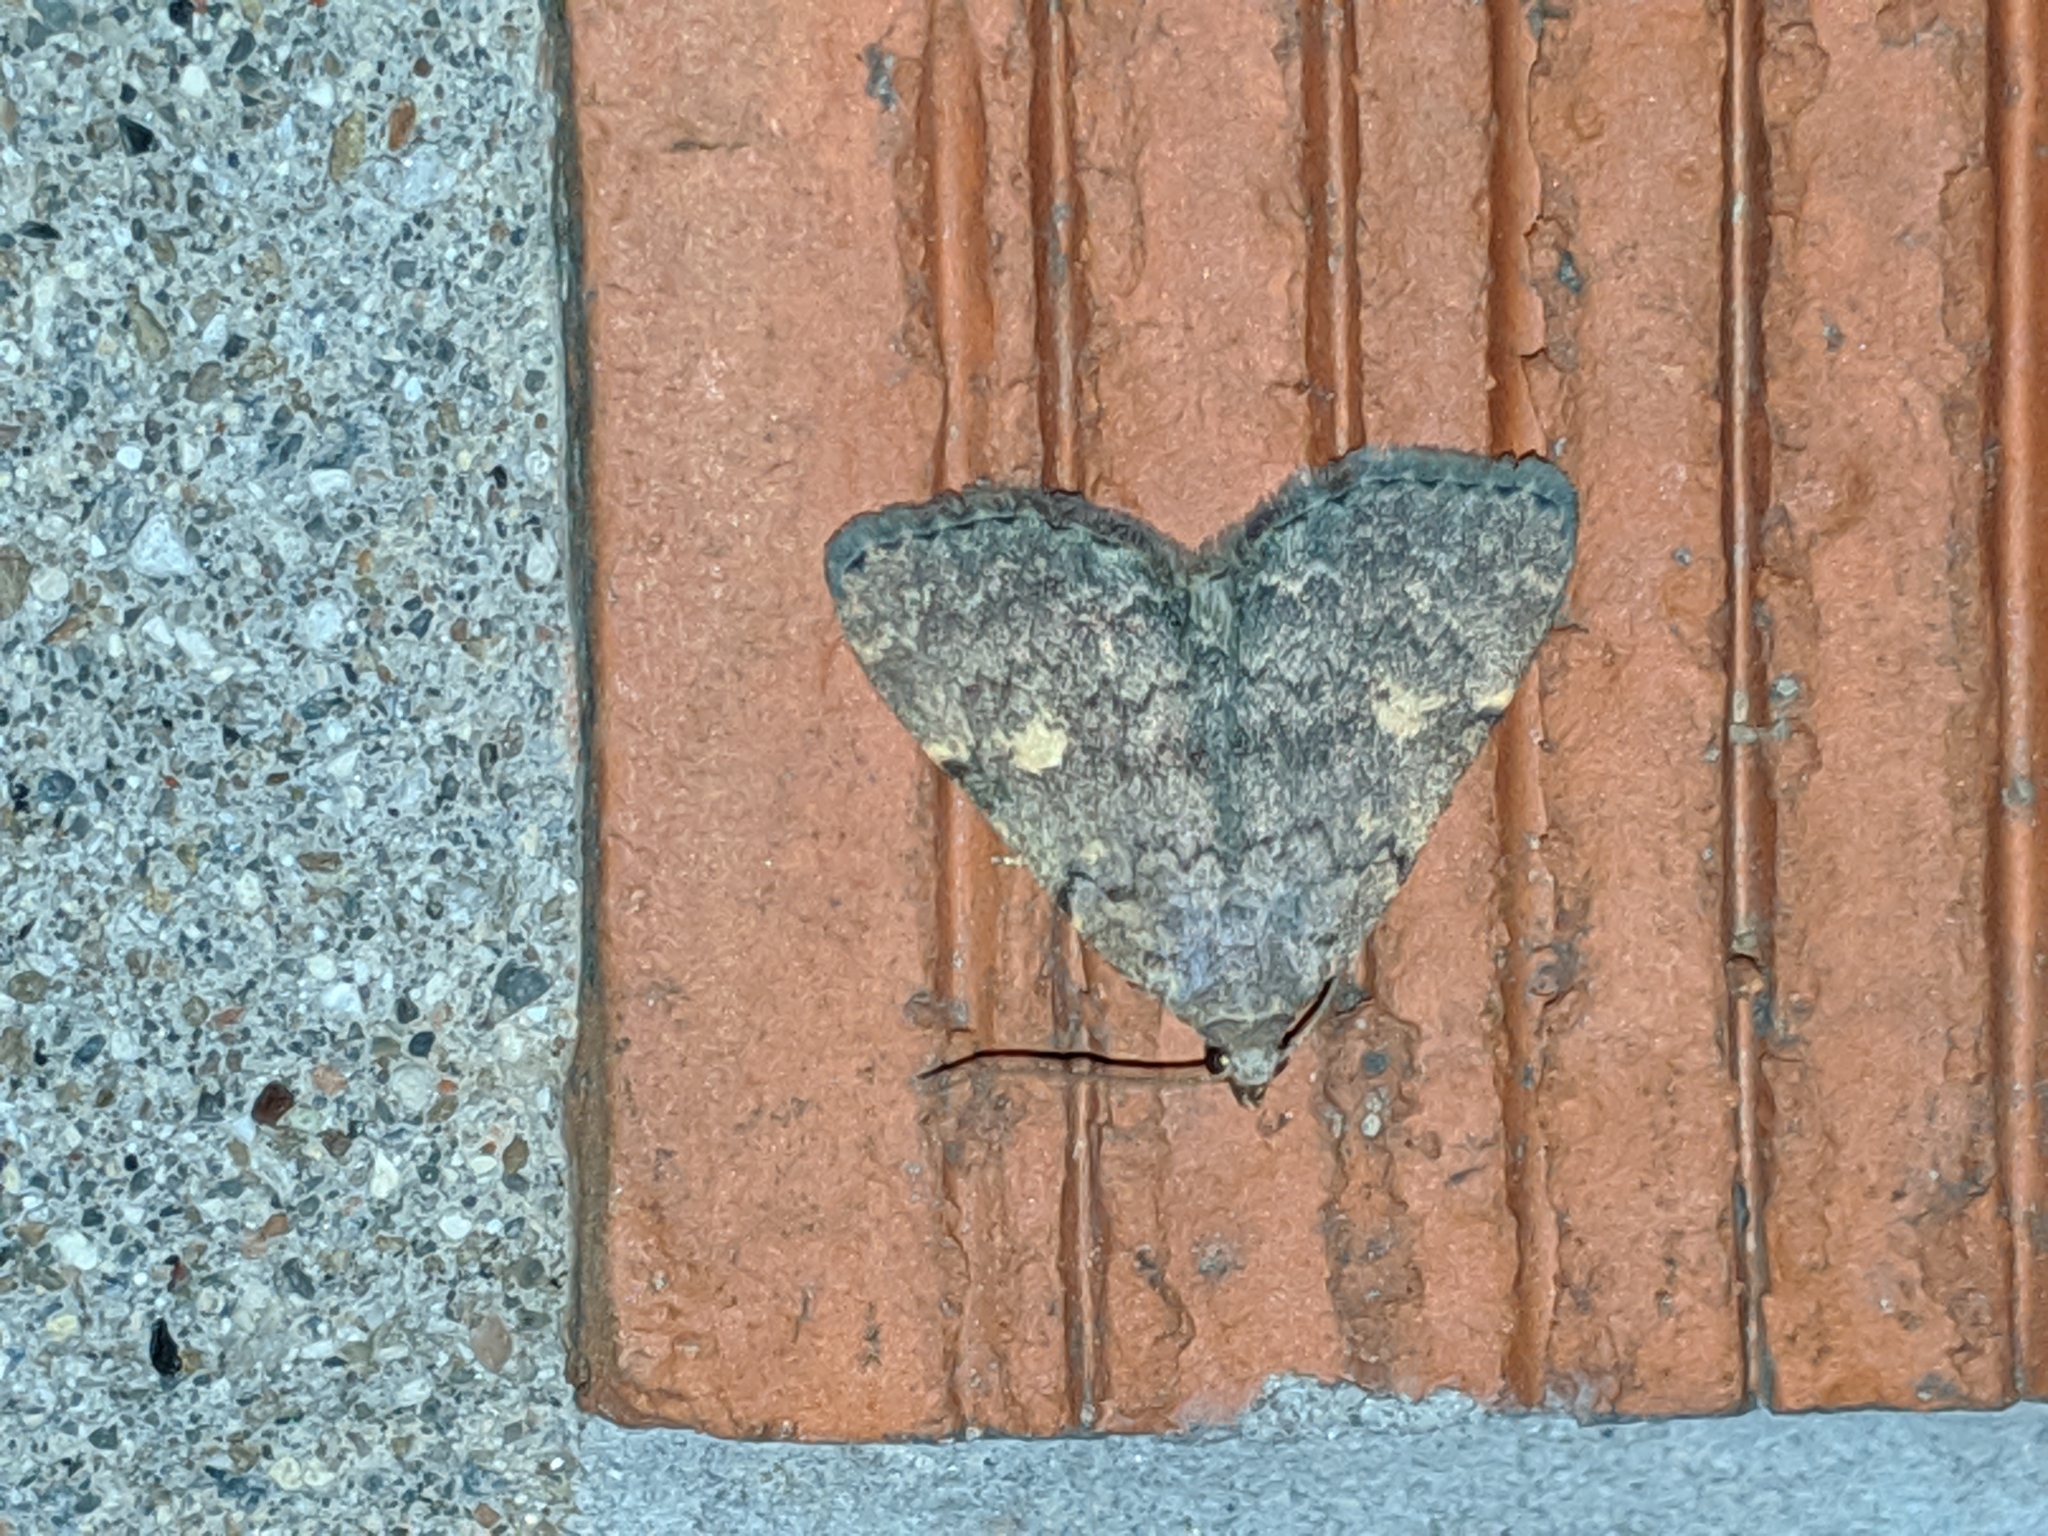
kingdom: Animalia
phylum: Arthropoda
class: Insecta
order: Lepidoptera
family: Erebidae
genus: Idia
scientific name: Idia aemula
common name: Common idia moth
